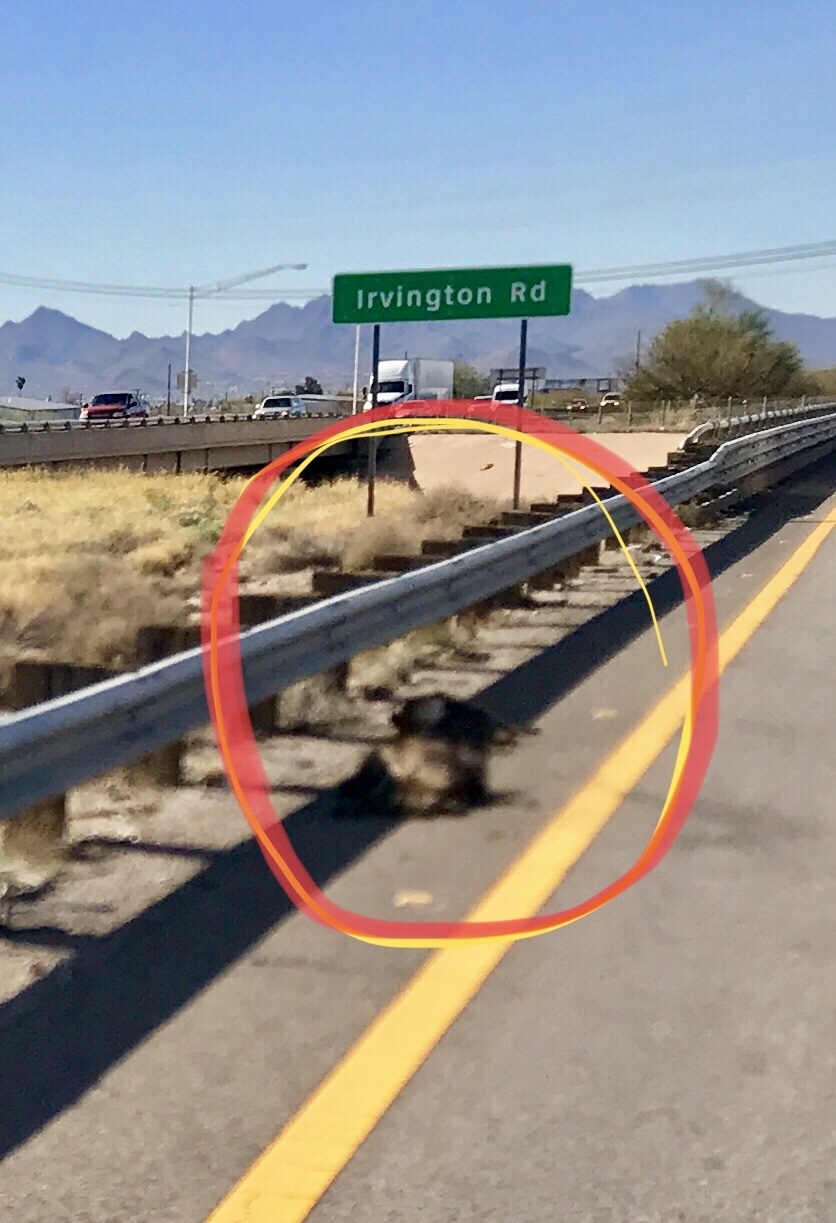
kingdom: Animalia
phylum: Chordata
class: Mammalia
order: Artiodactyla
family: Tayassuidae
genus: Pecari
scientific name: Pecari tajacu
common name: Collared peccary
